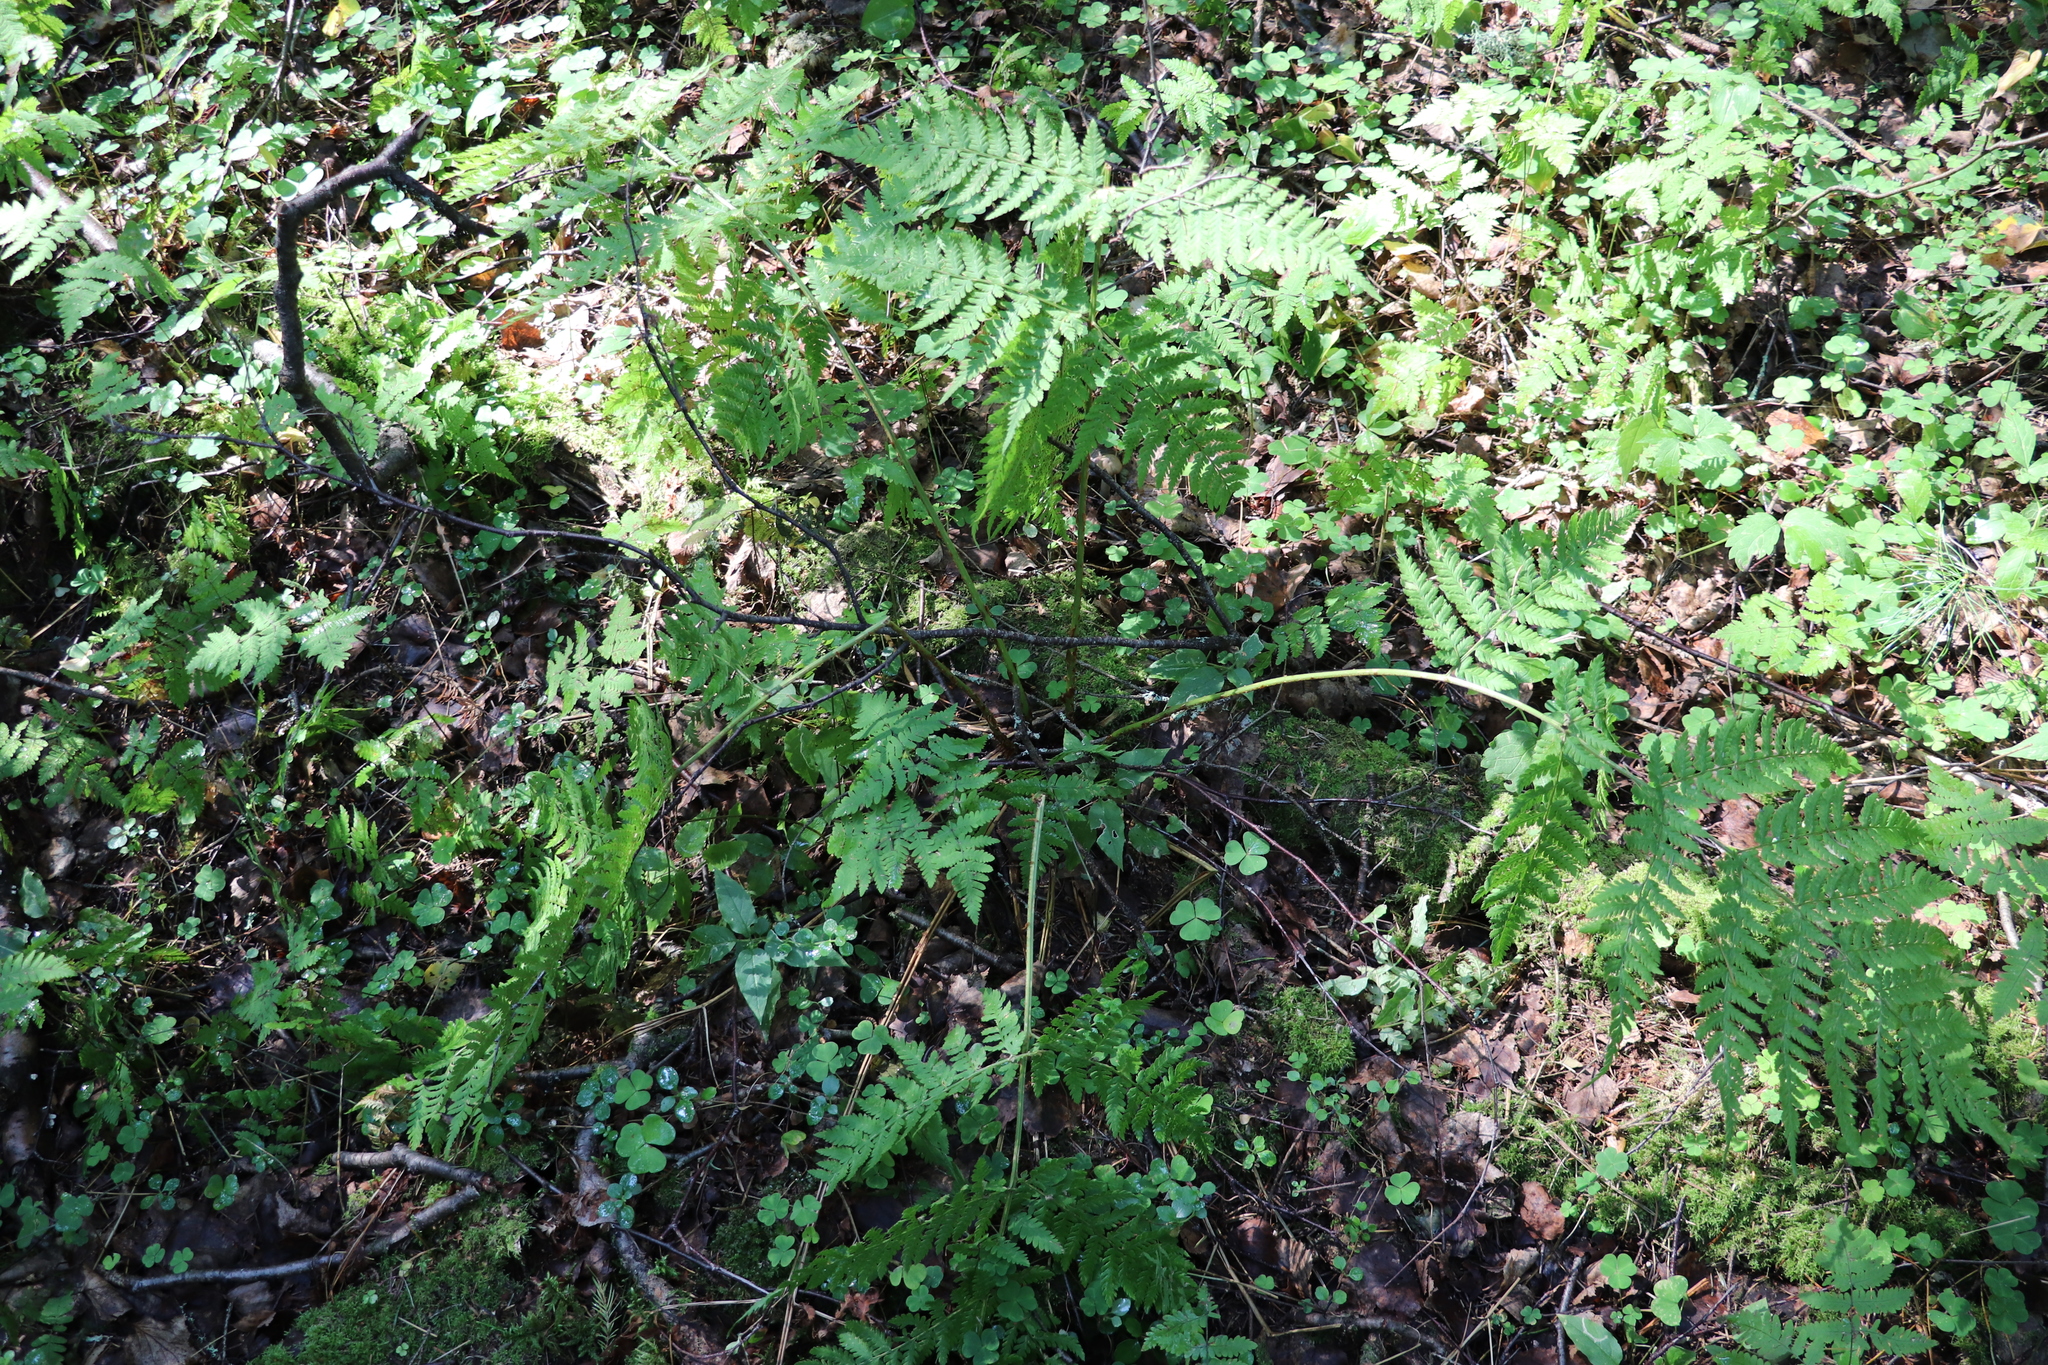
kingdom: Plantae
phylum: Tracheophyta
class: Polypodiopsida
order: Polypodiales
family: Dryopteridaceae
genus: Dryopteris
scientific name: Dryopteris expansa
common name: Northern buckler fern
